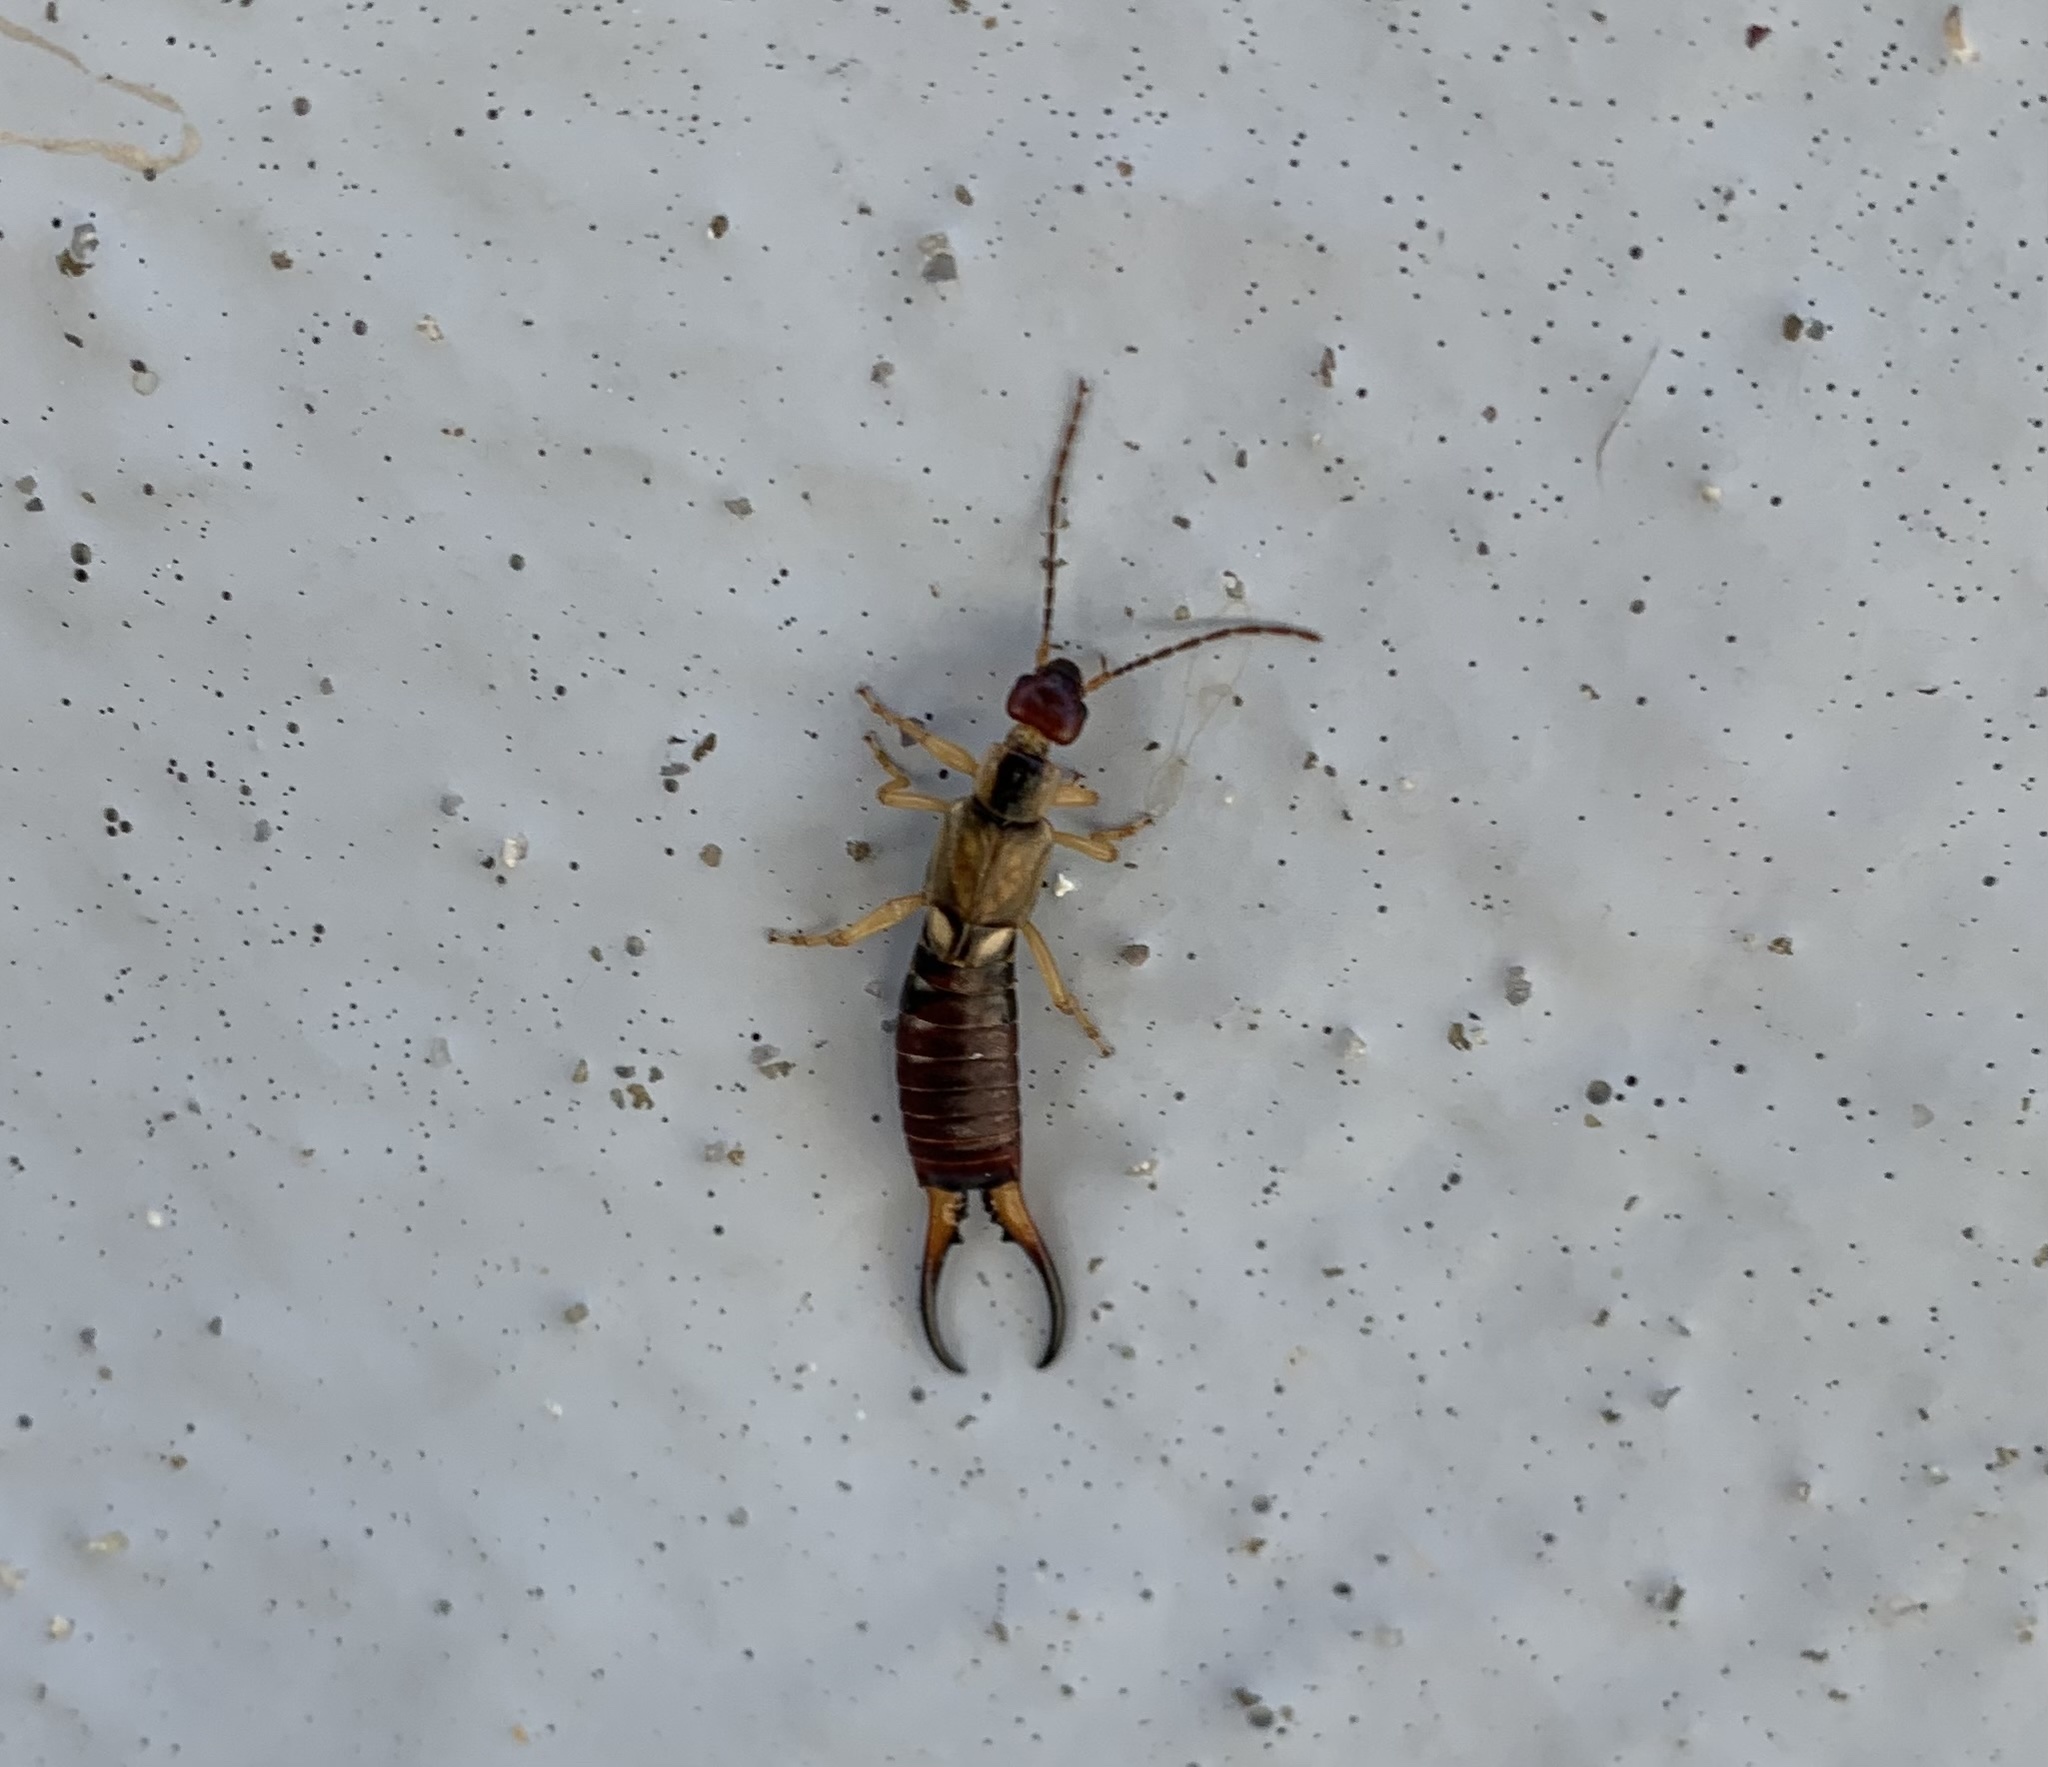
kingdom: Animalia
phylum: Arthropoda
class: Insecta
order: Dermaptera
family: Forficulidae
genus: Forficula
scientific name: Forficula
